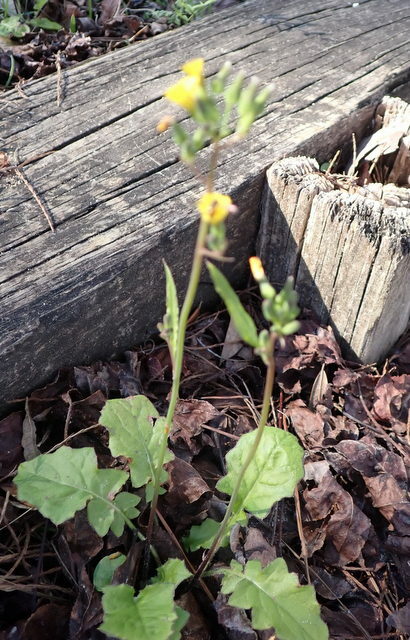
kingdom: Plantae
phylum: Tracheophyta
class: Magnoliopsida
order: Asterales
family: Asteraceae
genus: Youngia
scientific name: Youngia japonica
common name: Oriental false hawksbeard
